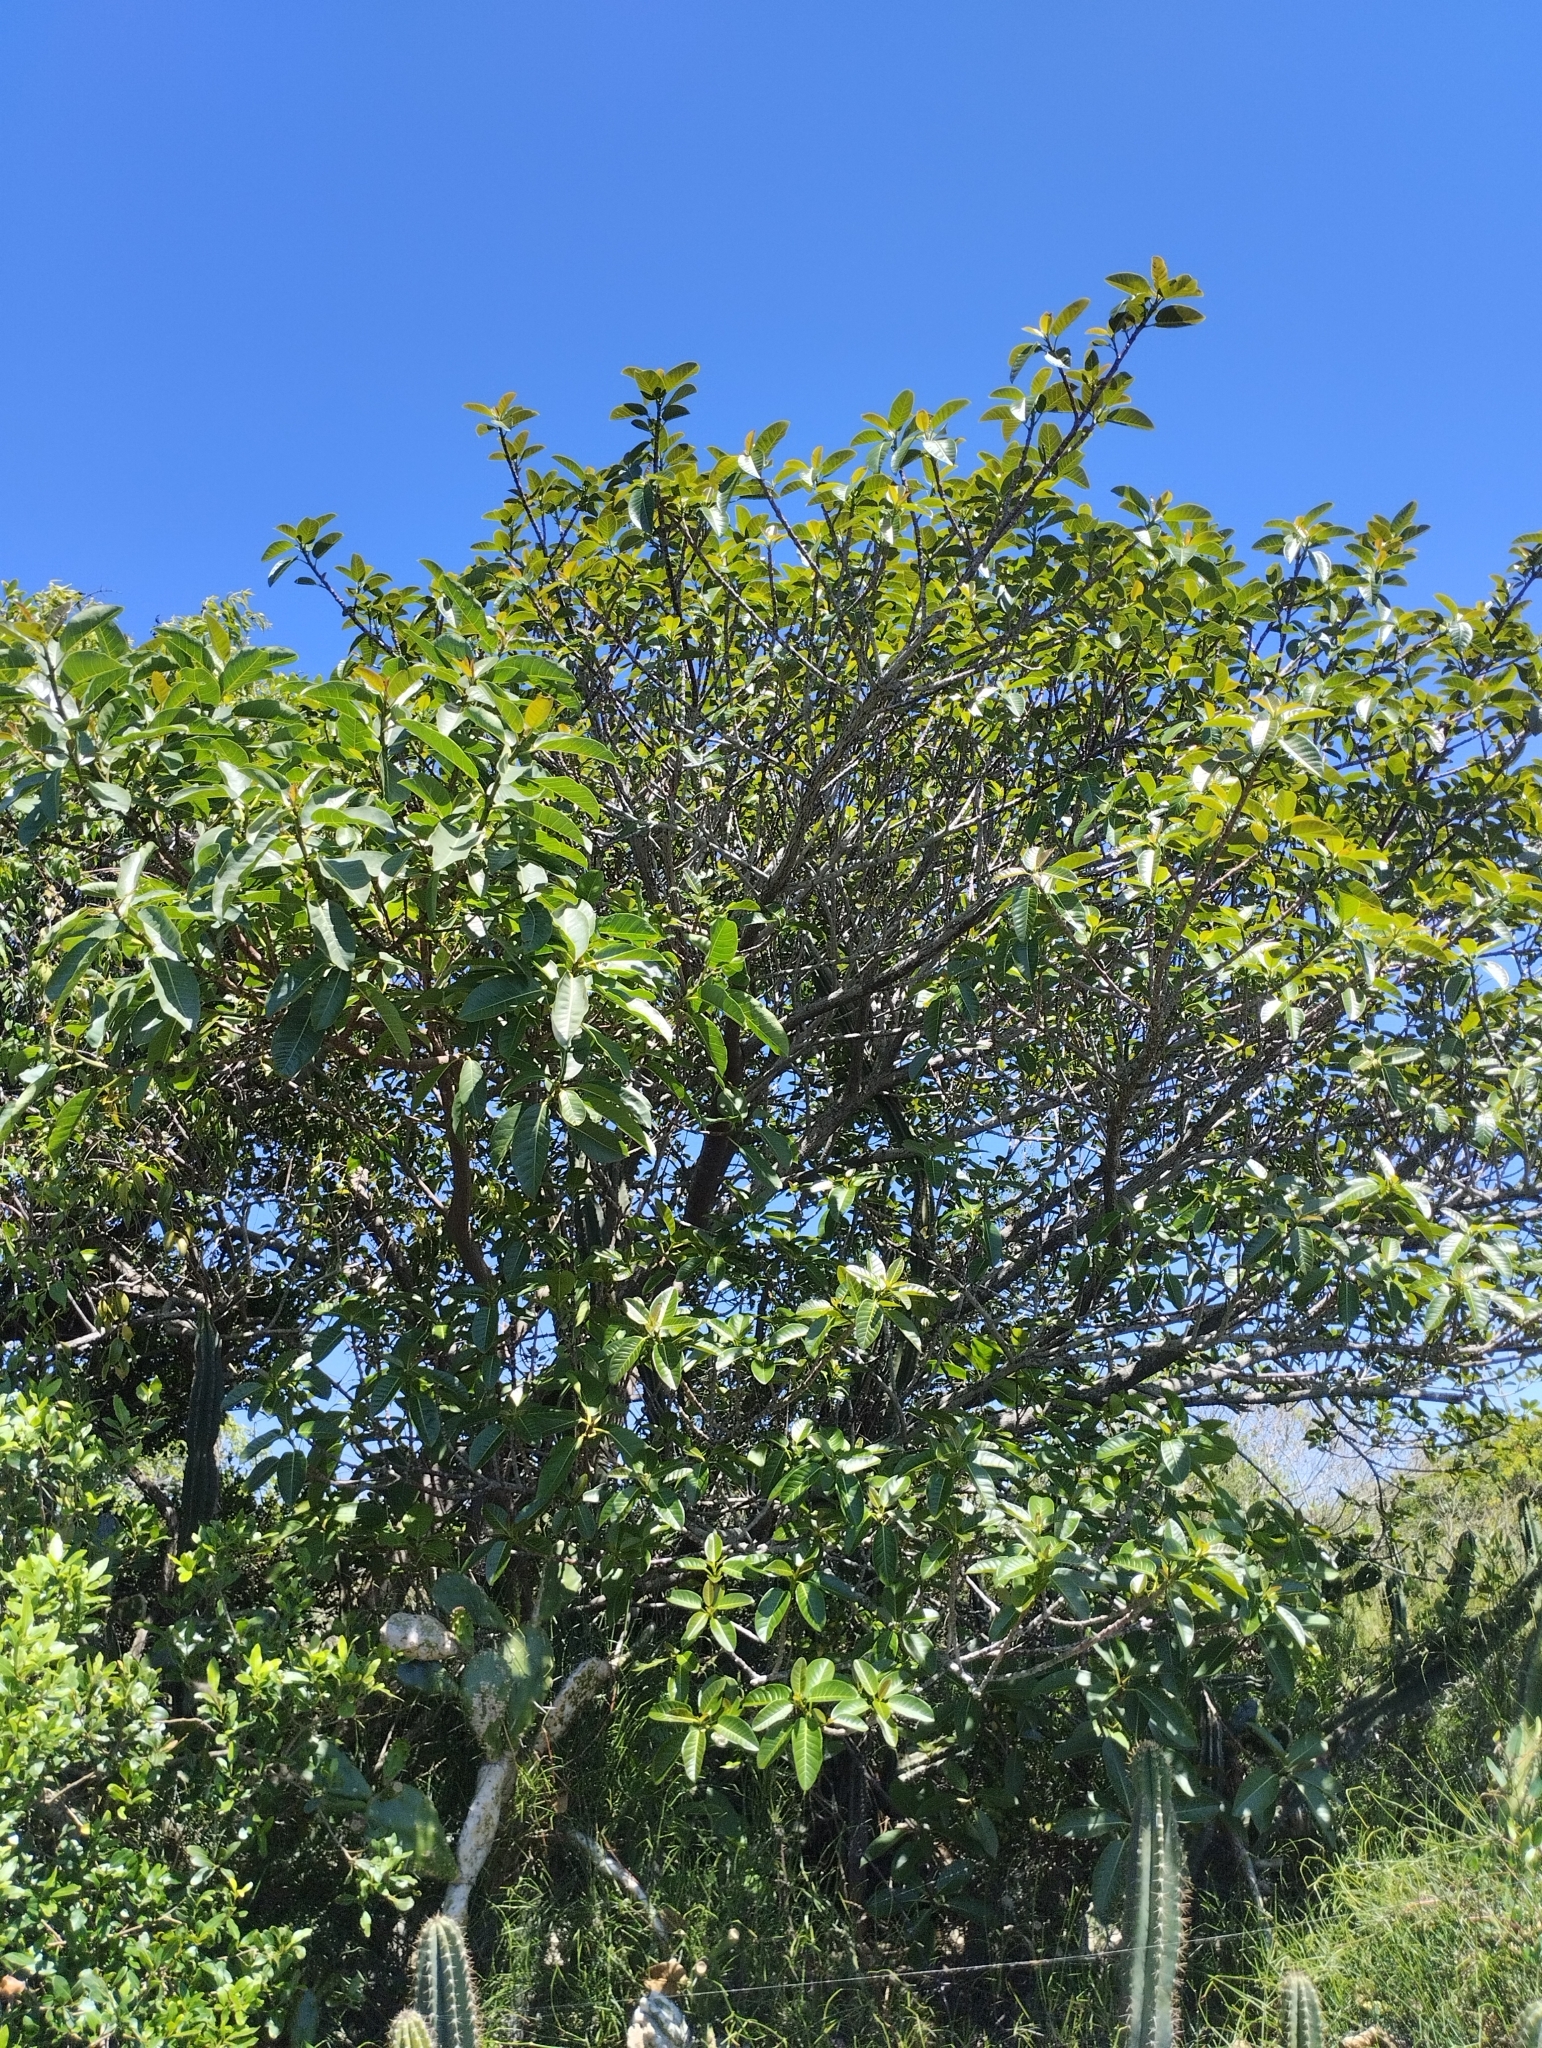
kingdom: Plantae
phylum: Tracheophyta
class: Magnoliopsida
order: Rosales
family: Moraceae
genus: Ficus
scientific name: Ficus luschnathiana
